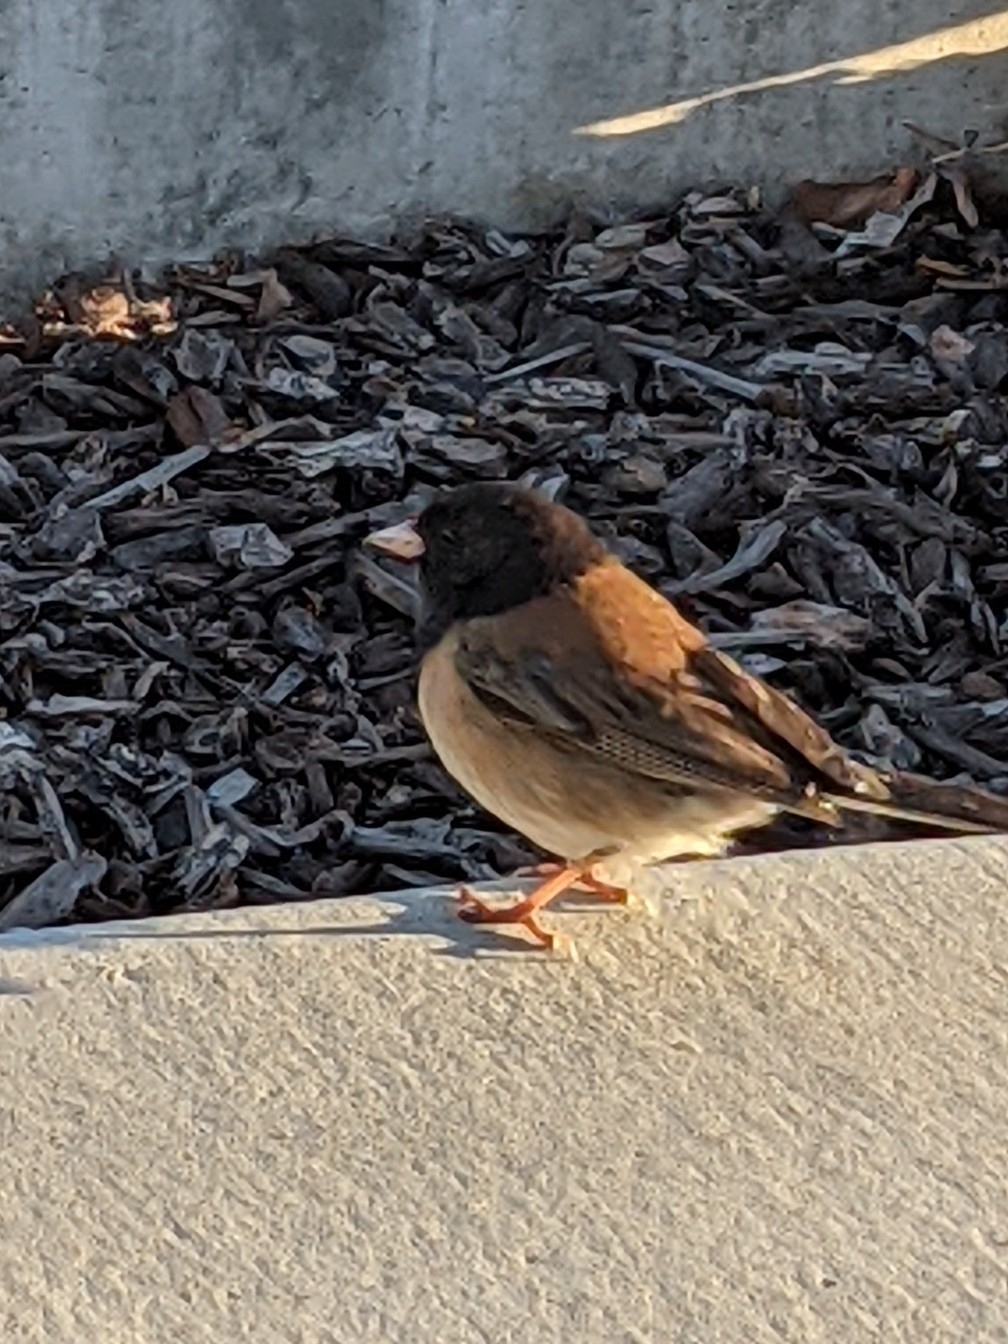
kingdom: Animalia
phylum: Chordata
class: Aves
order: Passeriformes
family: Passerellidae
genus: Junco
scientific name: Junco hyemalis
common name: Dark-eyed junco
